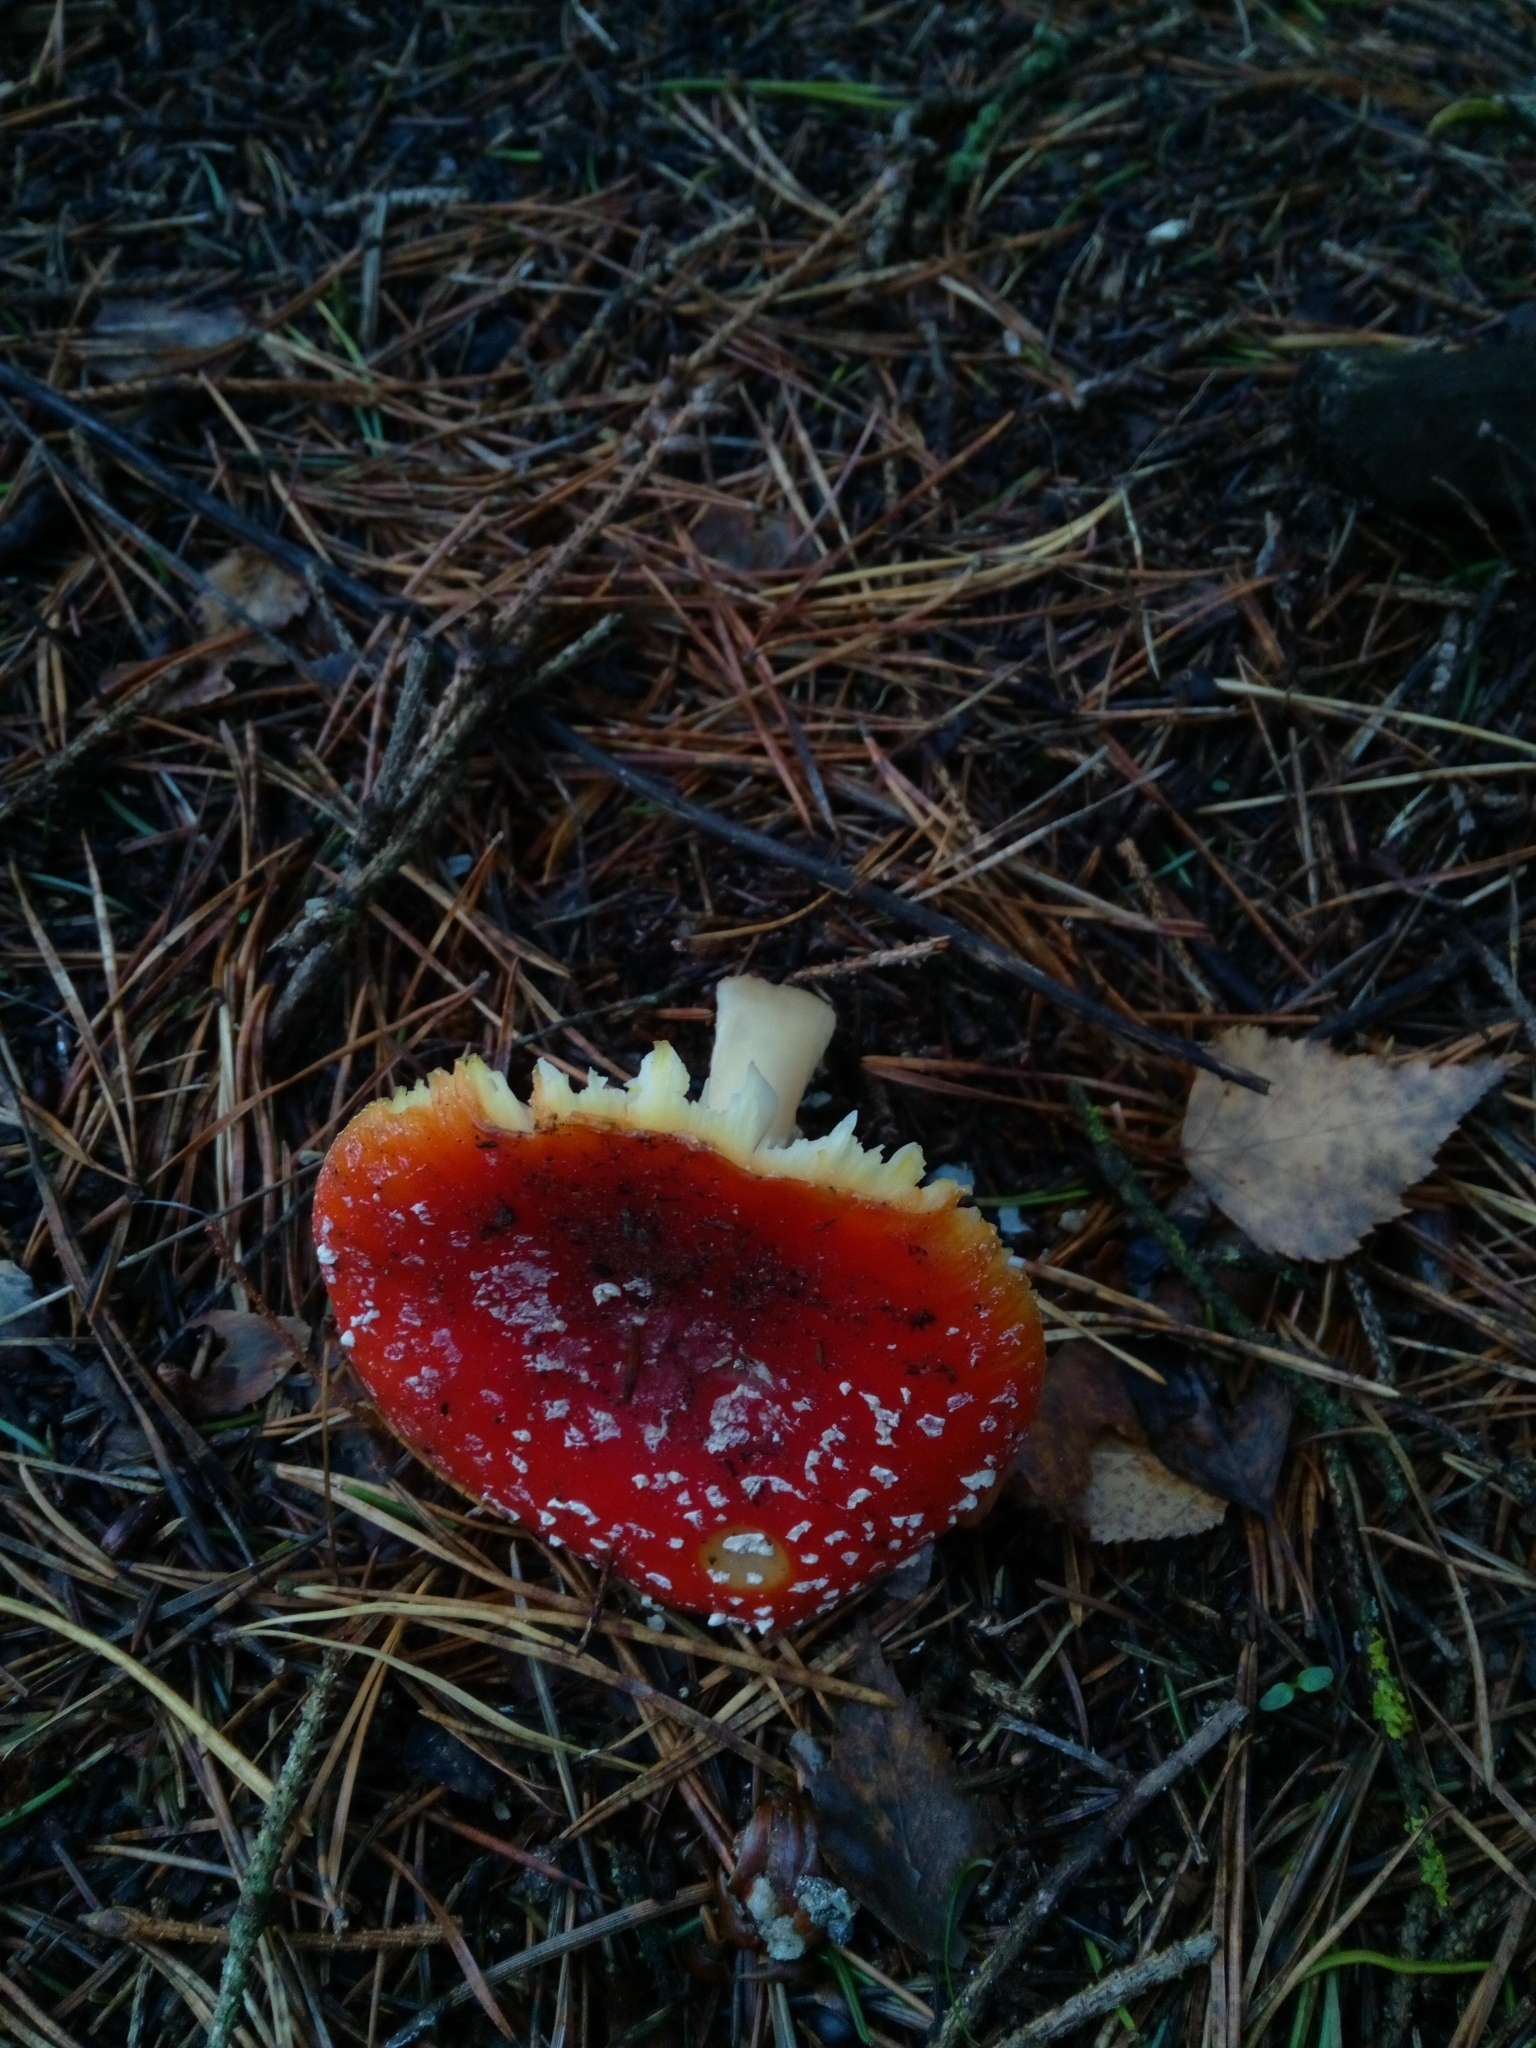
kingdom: Fungi
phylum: Basidiomycota
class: Agaricomycetes
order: Agaricales
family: Amanitaceae
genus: Amanita
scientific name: Amanita muscaria
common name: Fly agaric
